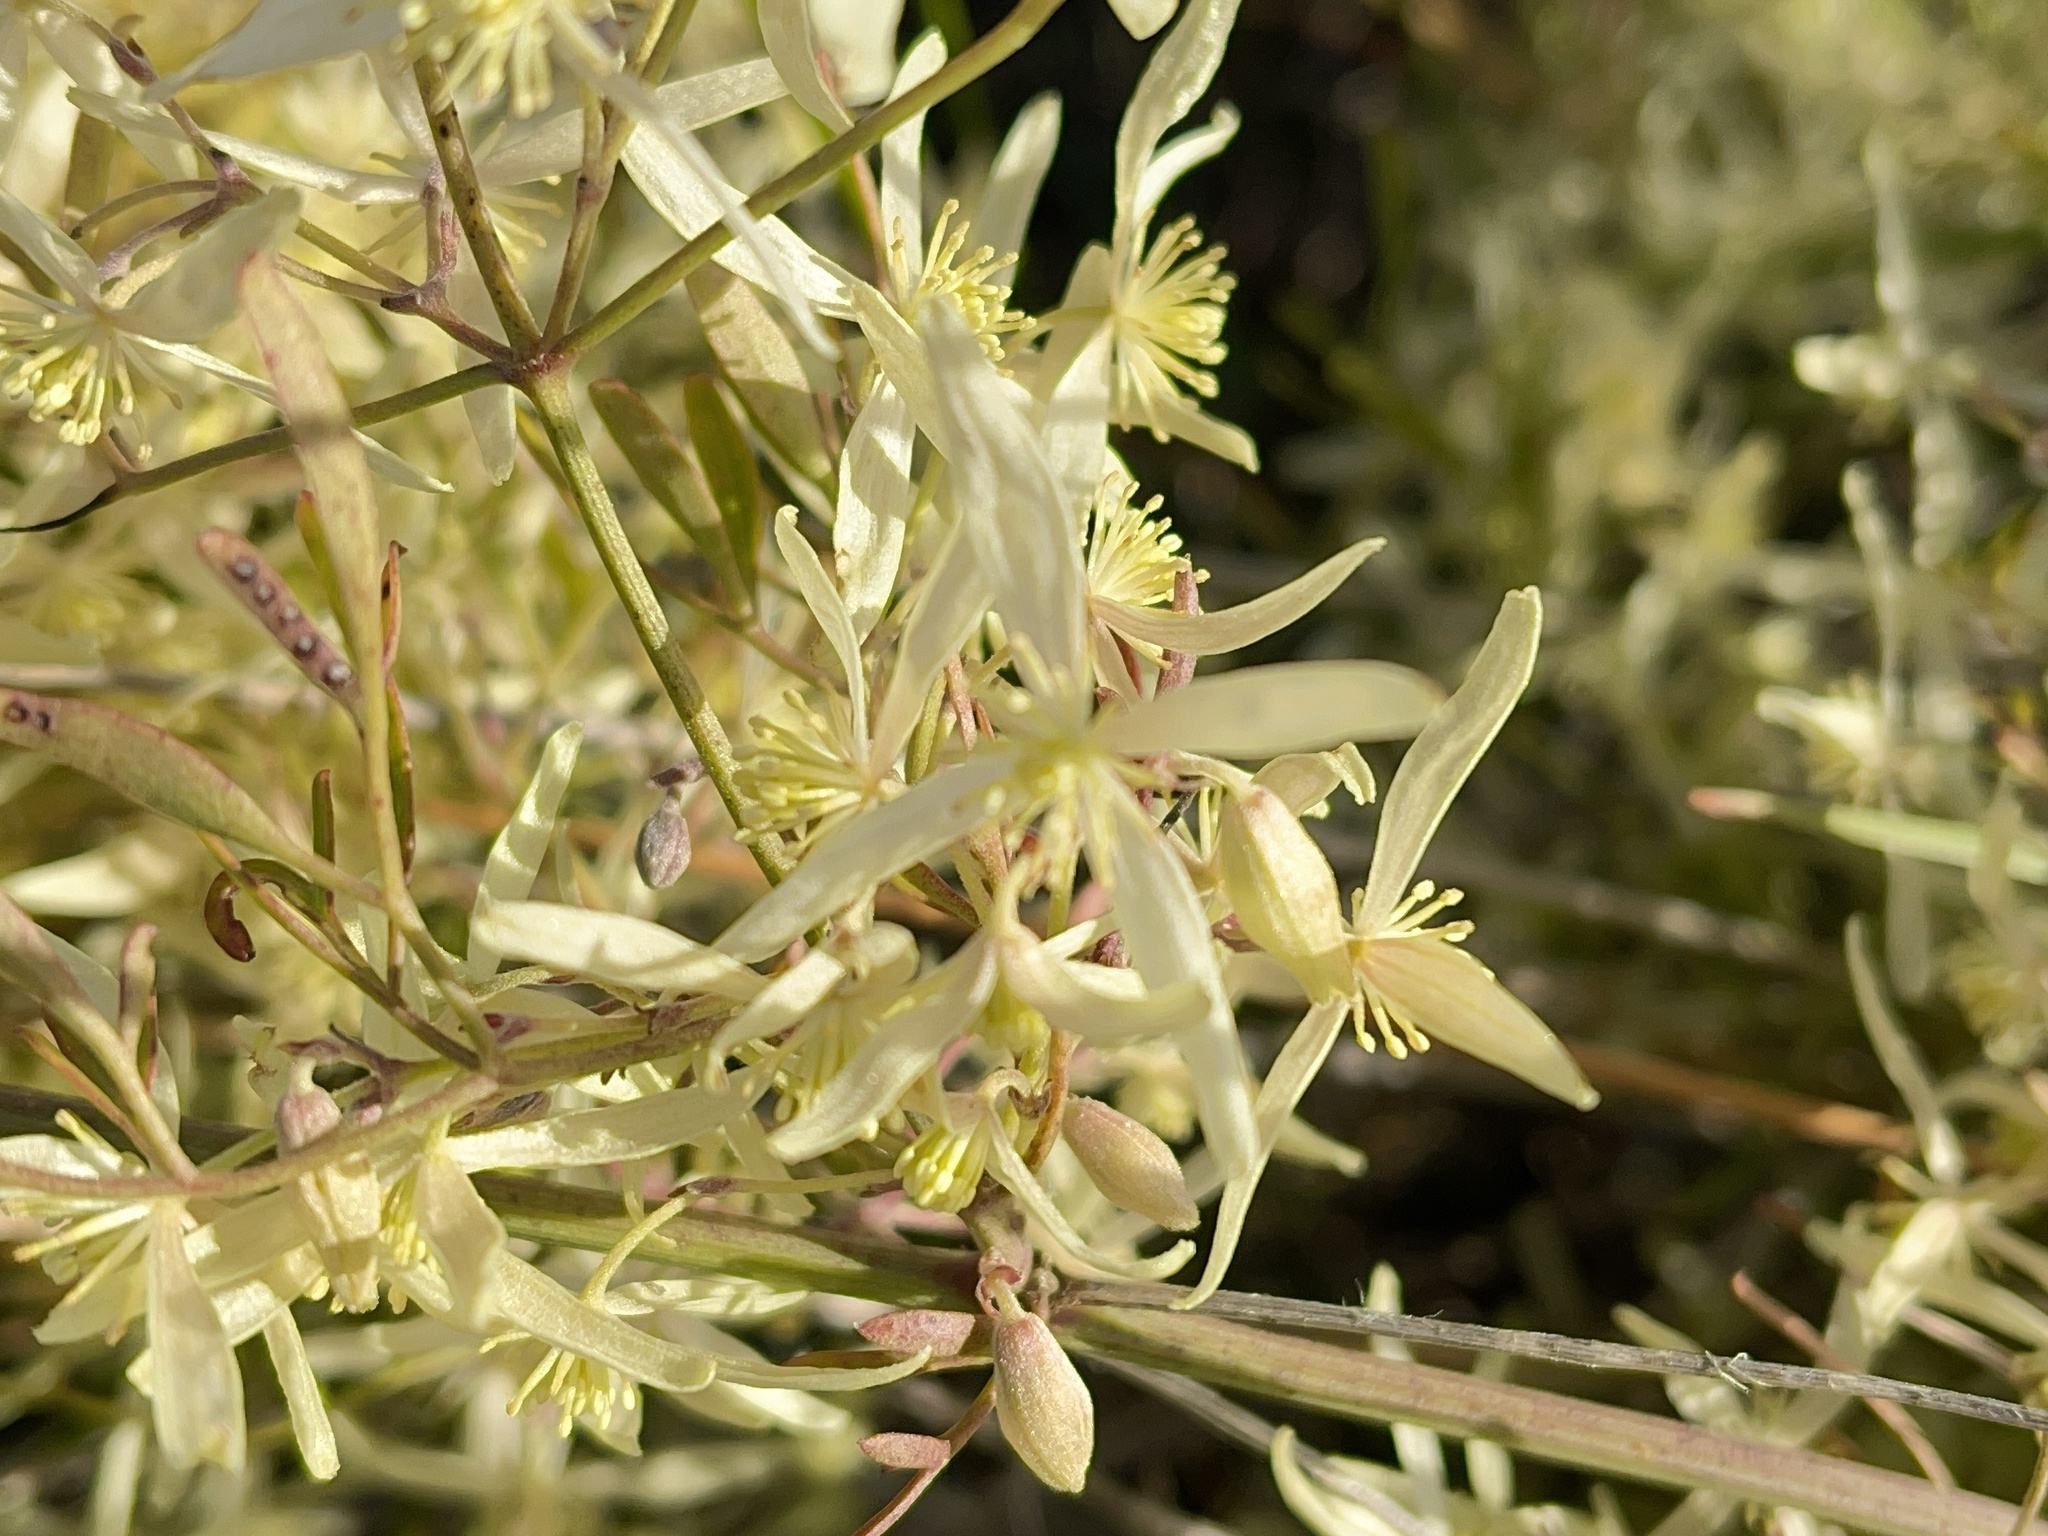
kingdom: Plantae
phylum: Tracheophyta
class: Magnoliopsida
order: Ranunculales
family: Ranunculaceae
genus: Clematis
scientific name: Clematis microphylla
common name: Headachevine
